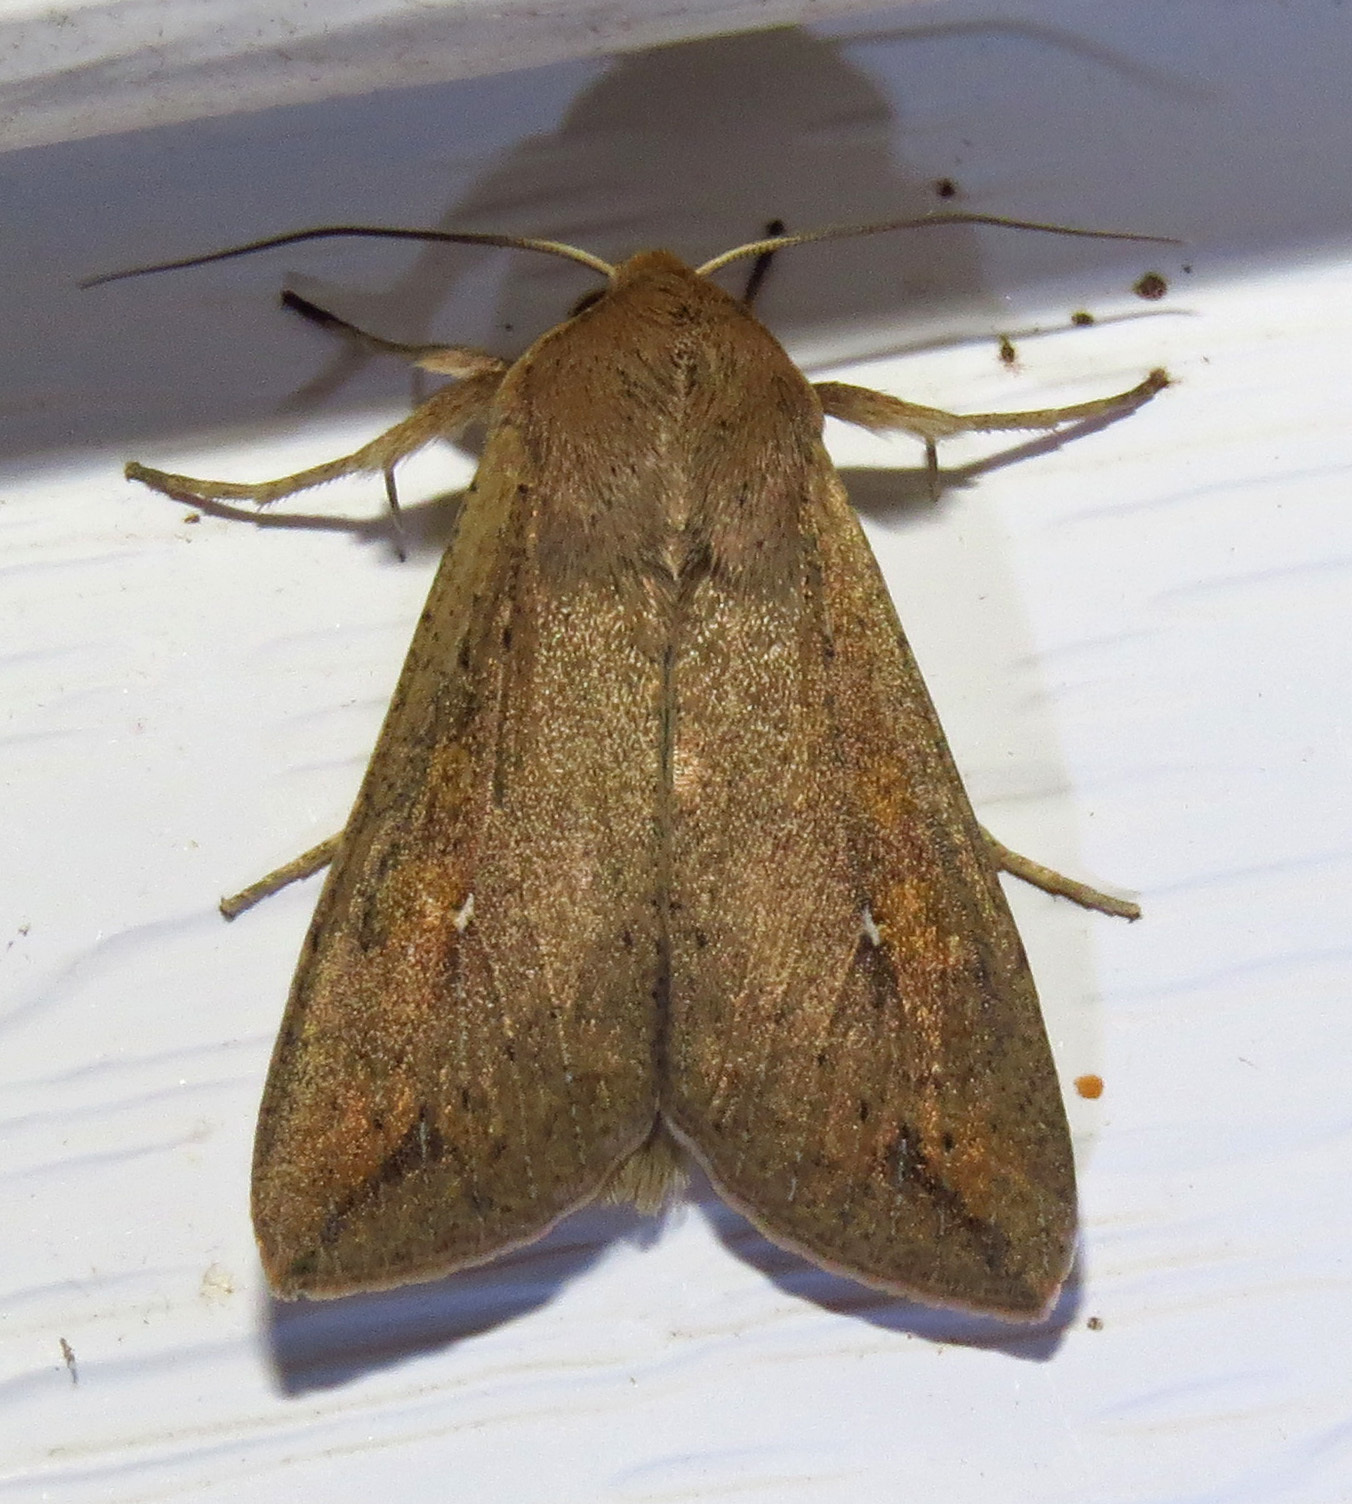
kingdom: Animalia
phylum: Arthropoda
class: Insecta
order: Lepidoptera
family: Noctuidae
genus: Mythimna
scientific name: Mythimna unipuncta
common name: White-speck
